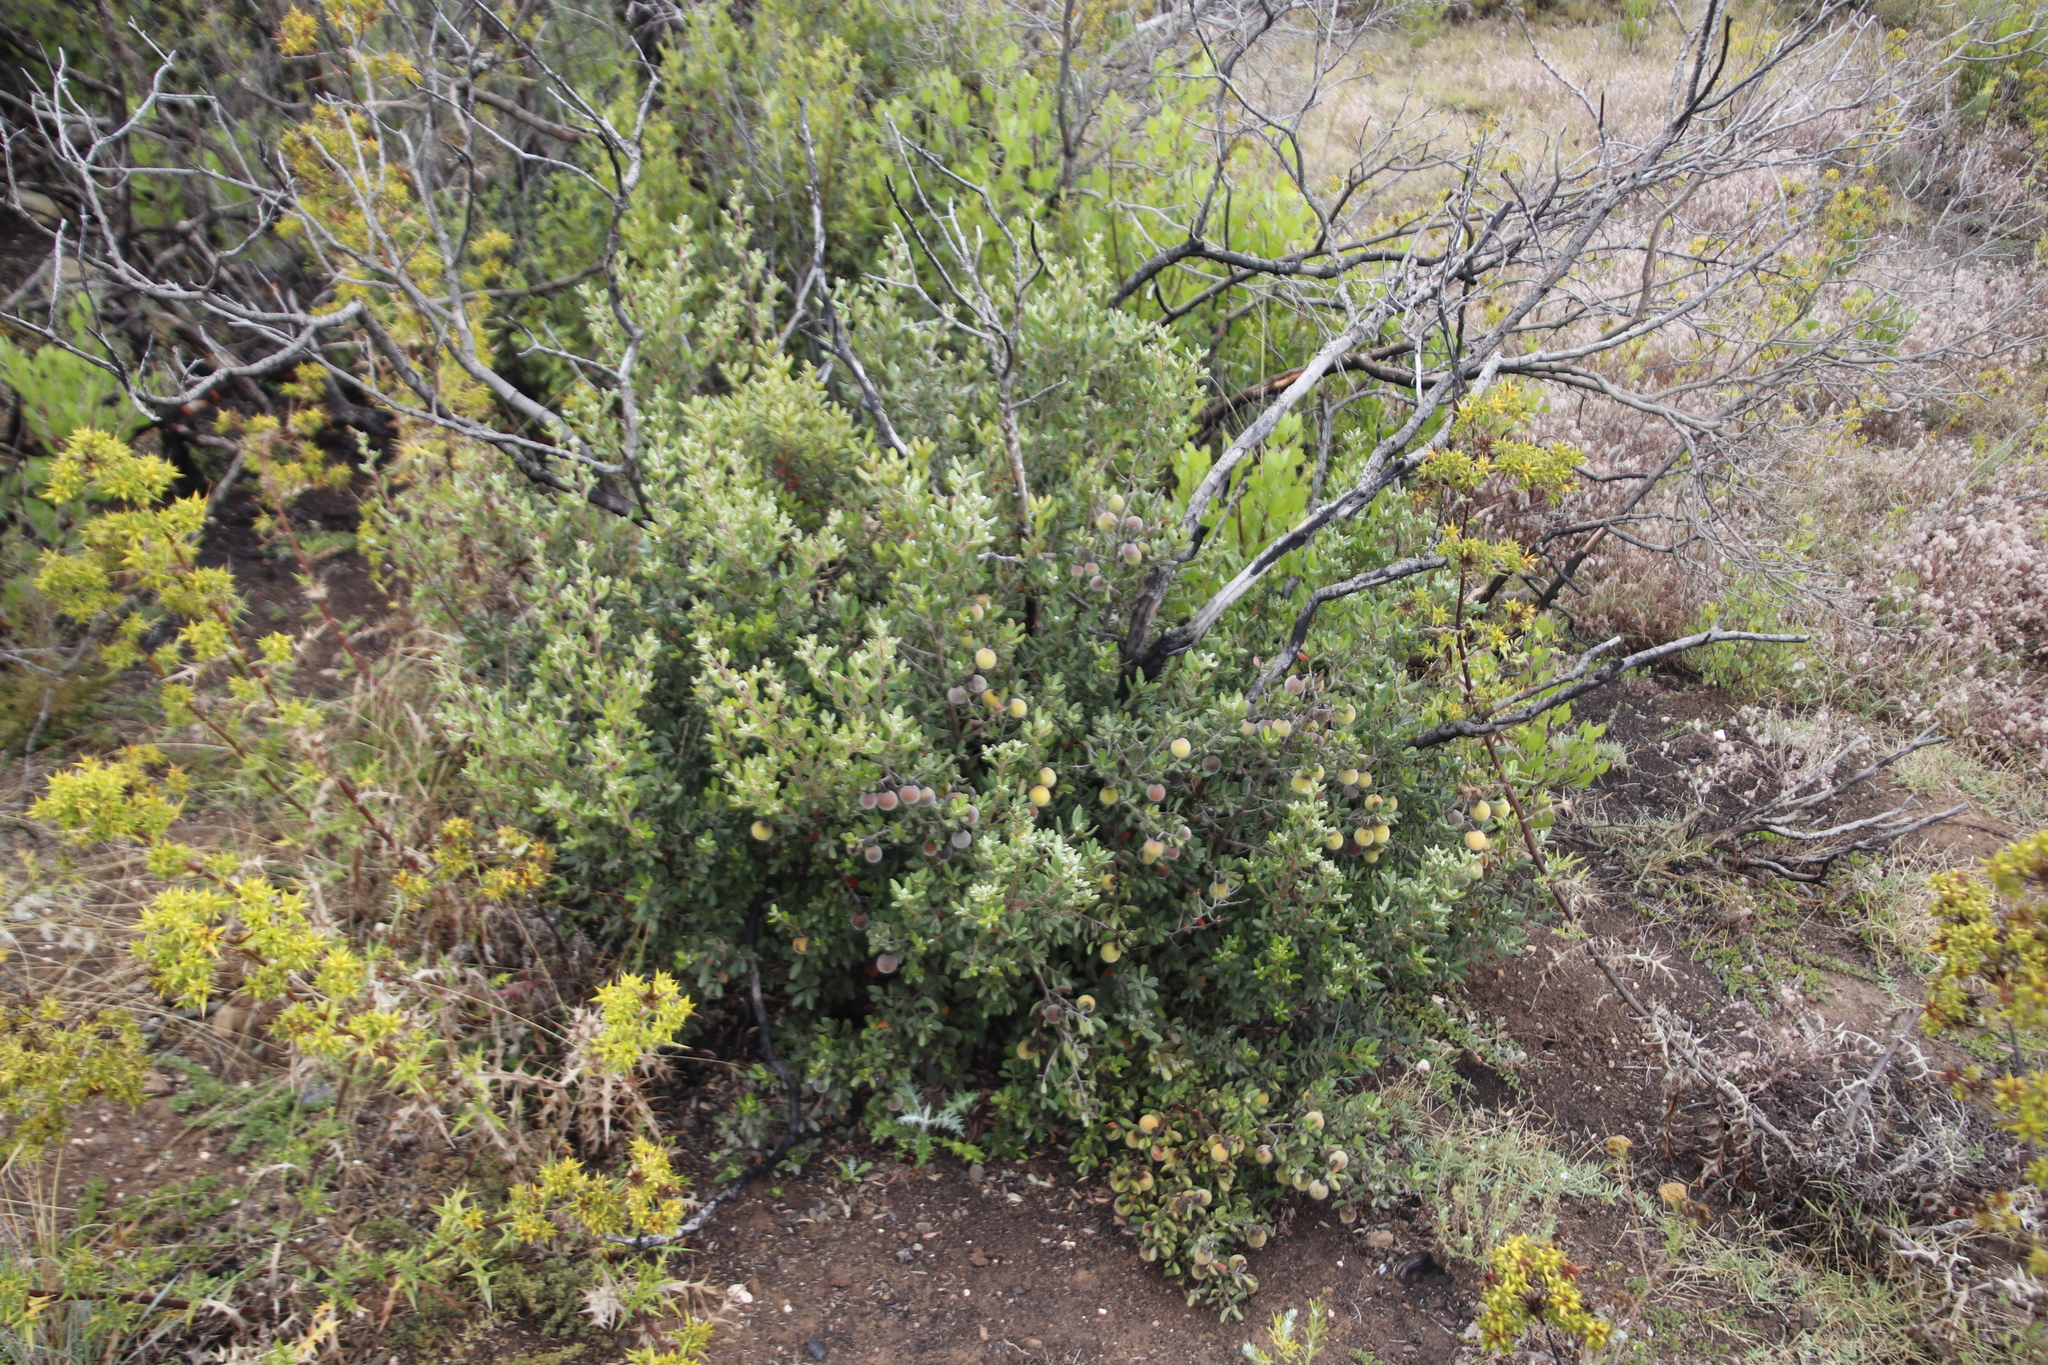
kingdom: Plantae
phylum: Tracheophyta
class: Magnoliopsida
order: Ericales
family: Ebenaceae
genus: Diospyros
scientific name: Diospyros dichrophylla
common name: Common star-apple
